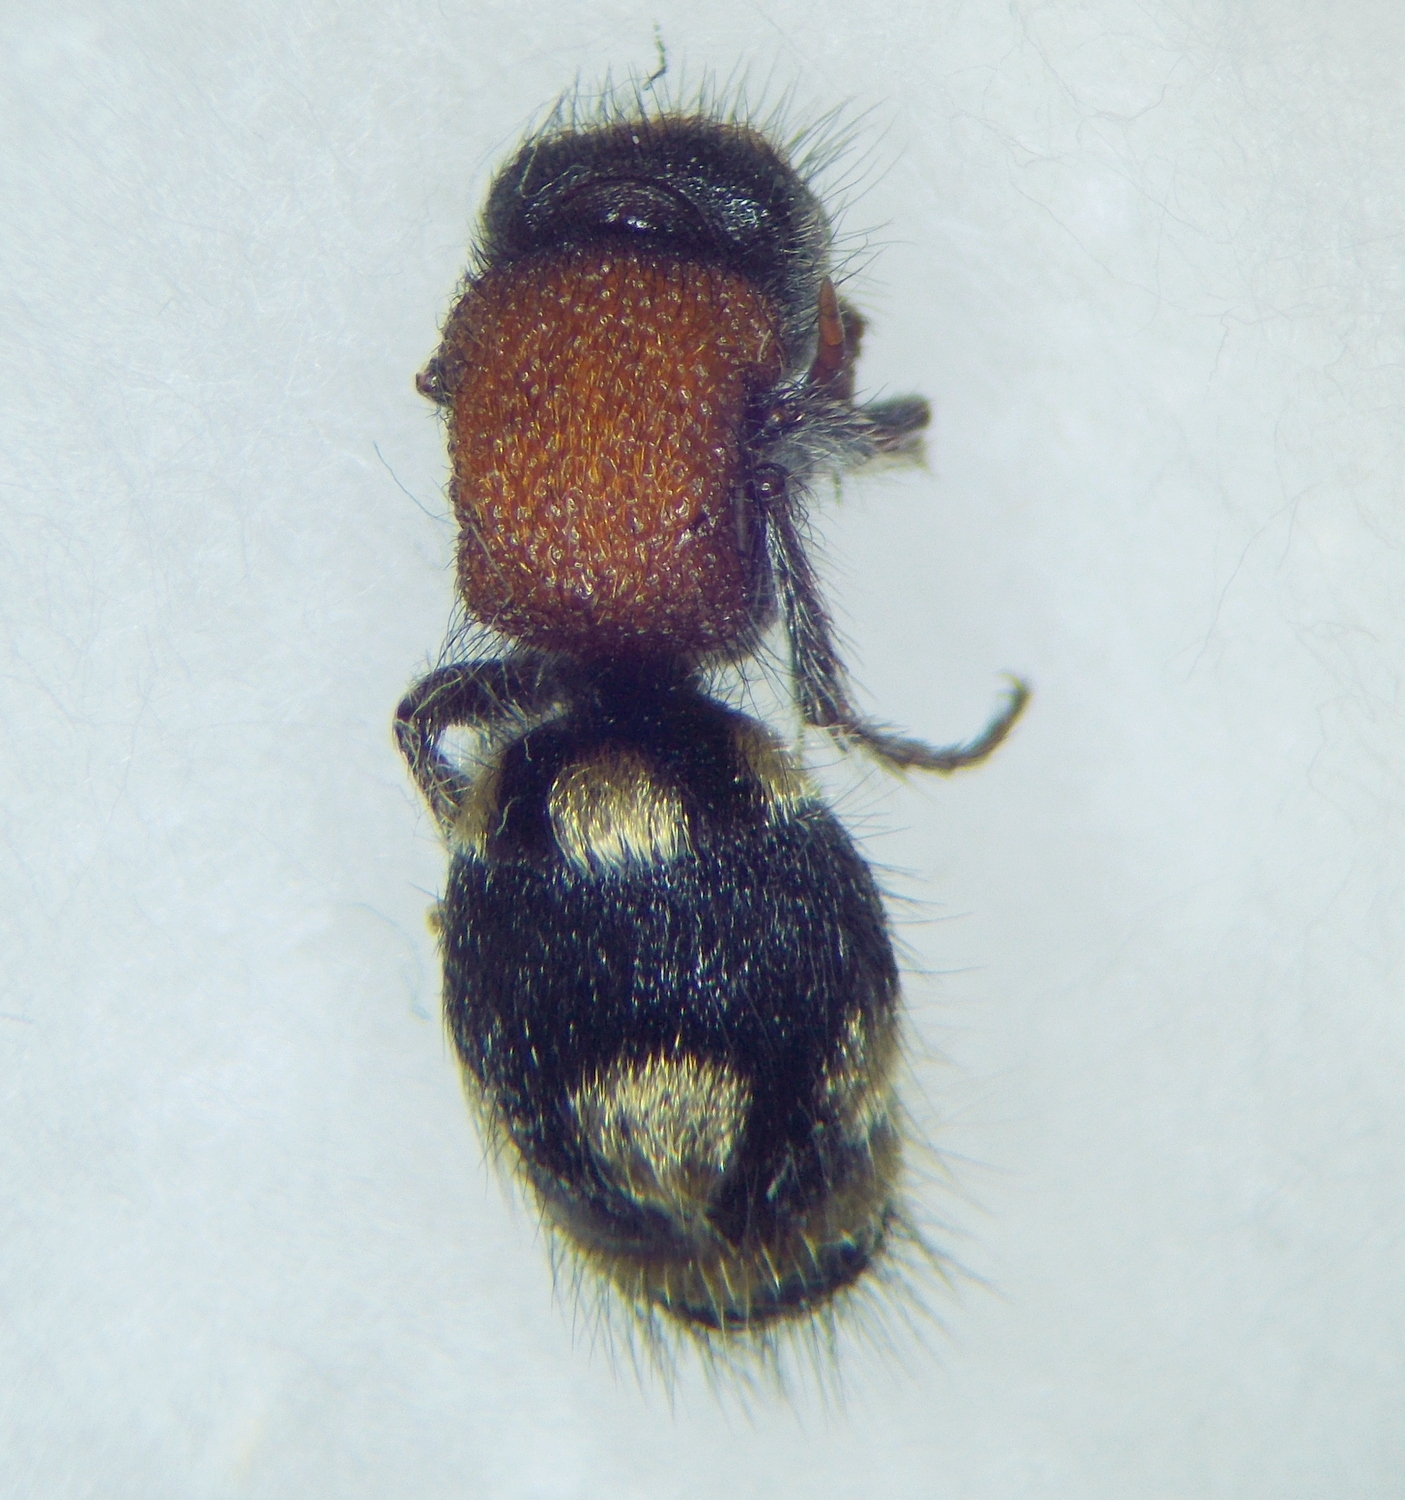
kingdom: Animalia
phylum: Arthropoda
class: Insecta
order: Hymenoptera
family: Mutillidae
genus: Ronisia
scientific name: Ronisia brutia
